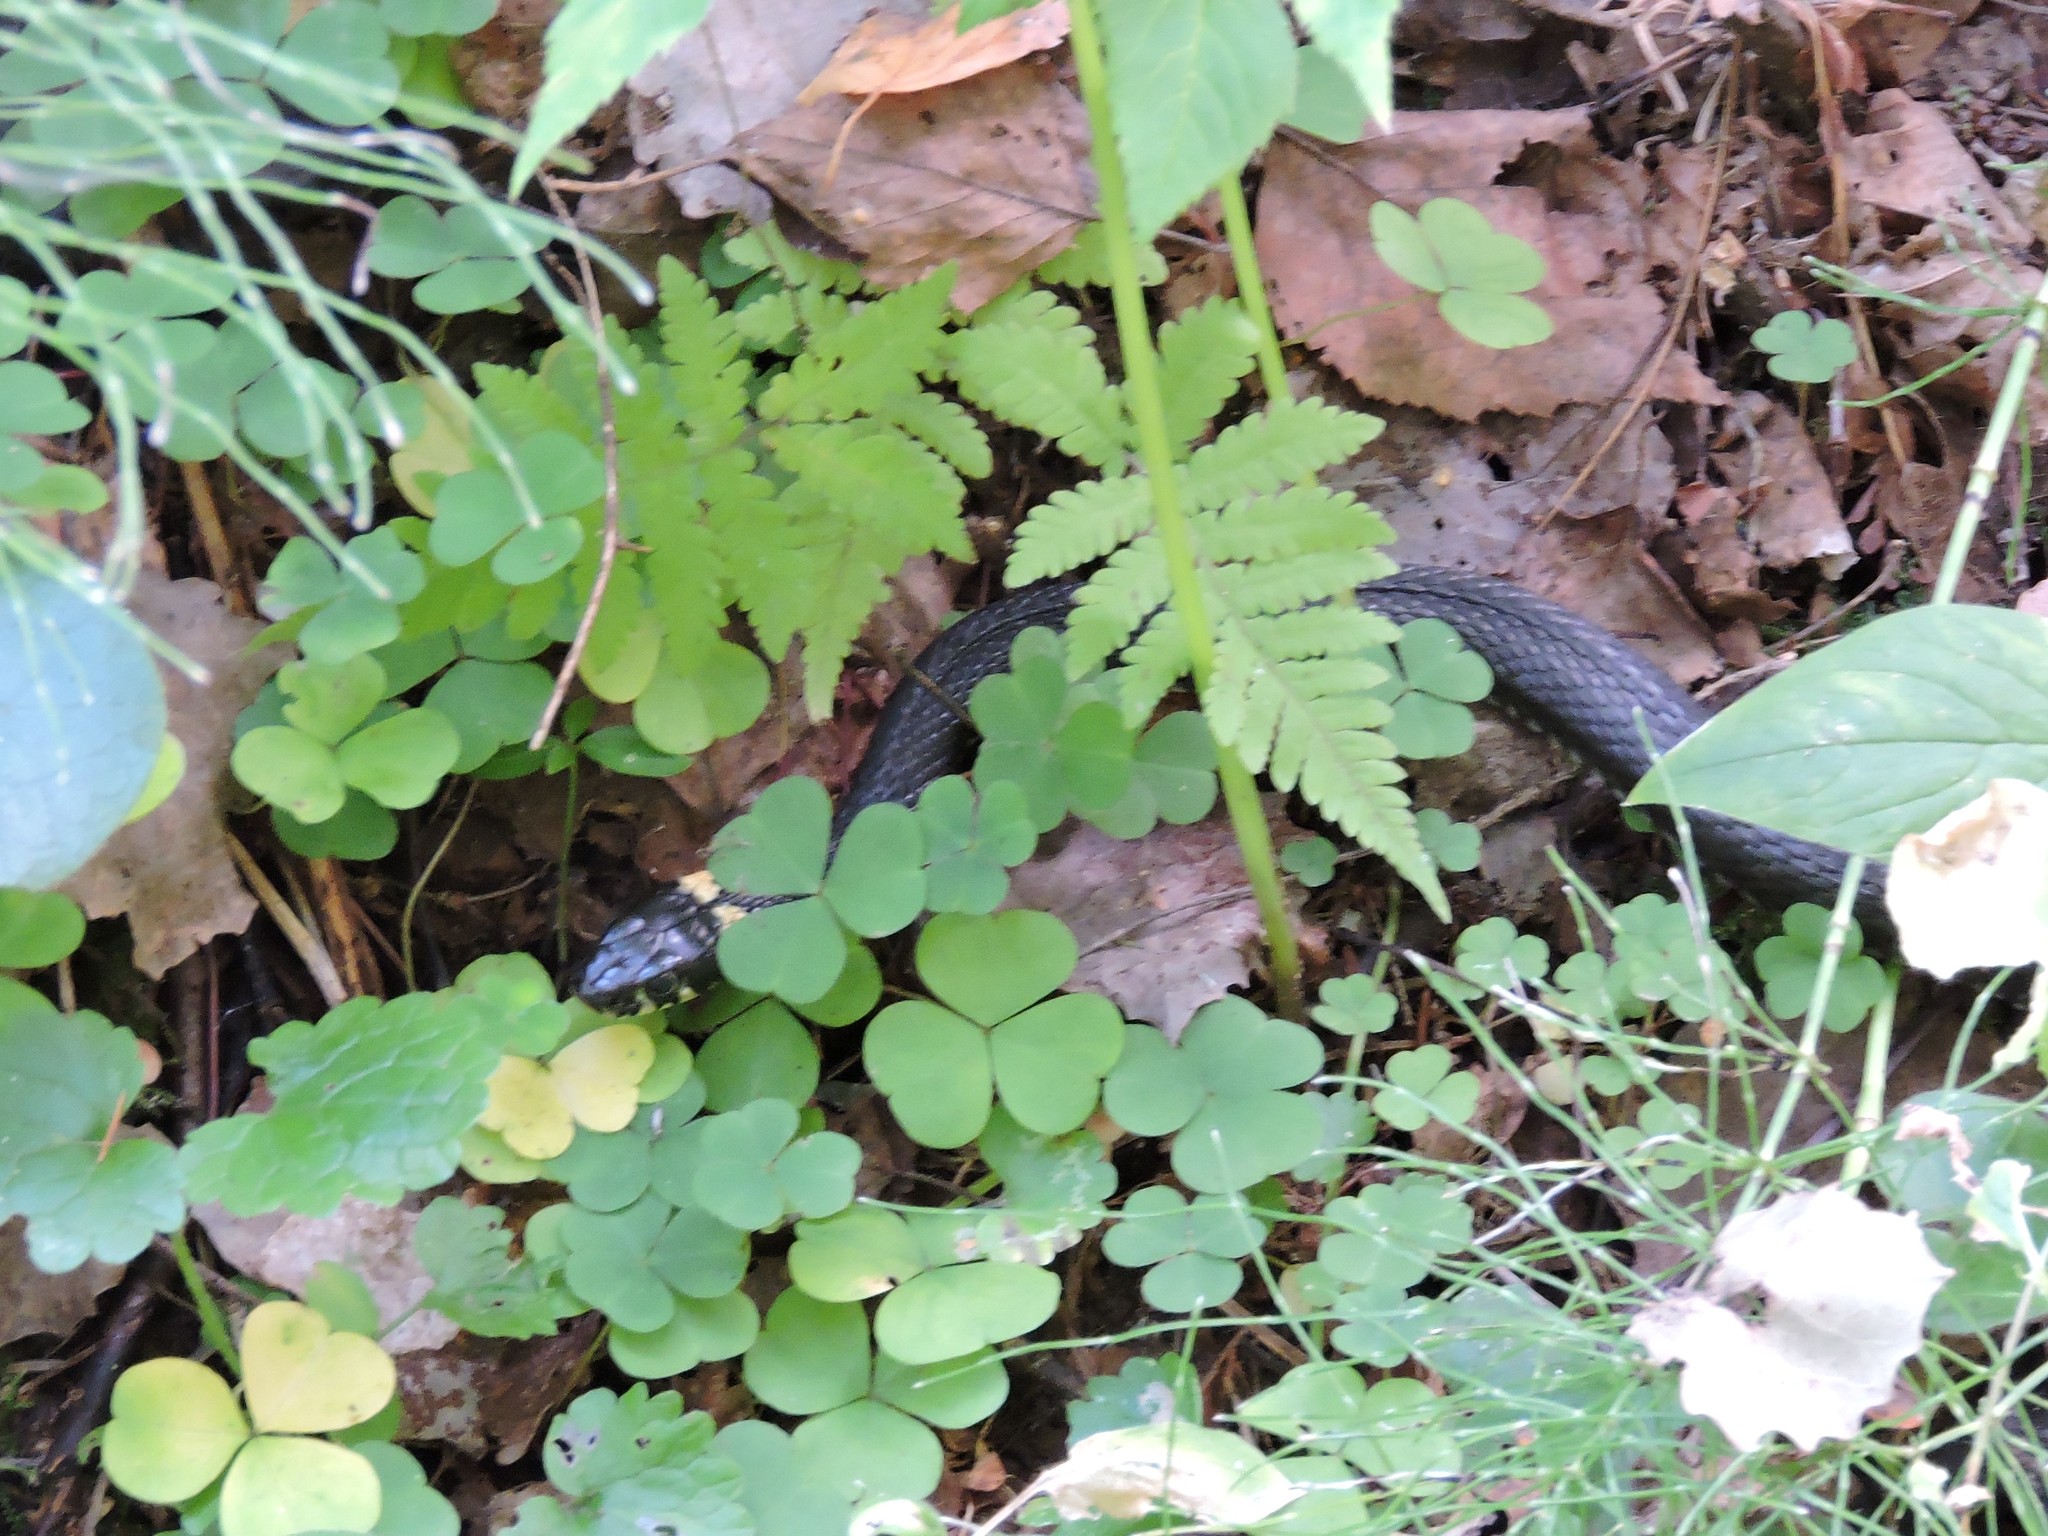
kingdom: Animalia
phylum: Chordata
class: Squamata
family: Colubridae
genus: Natrix
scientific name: Natrix natrix
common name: Grass snake
